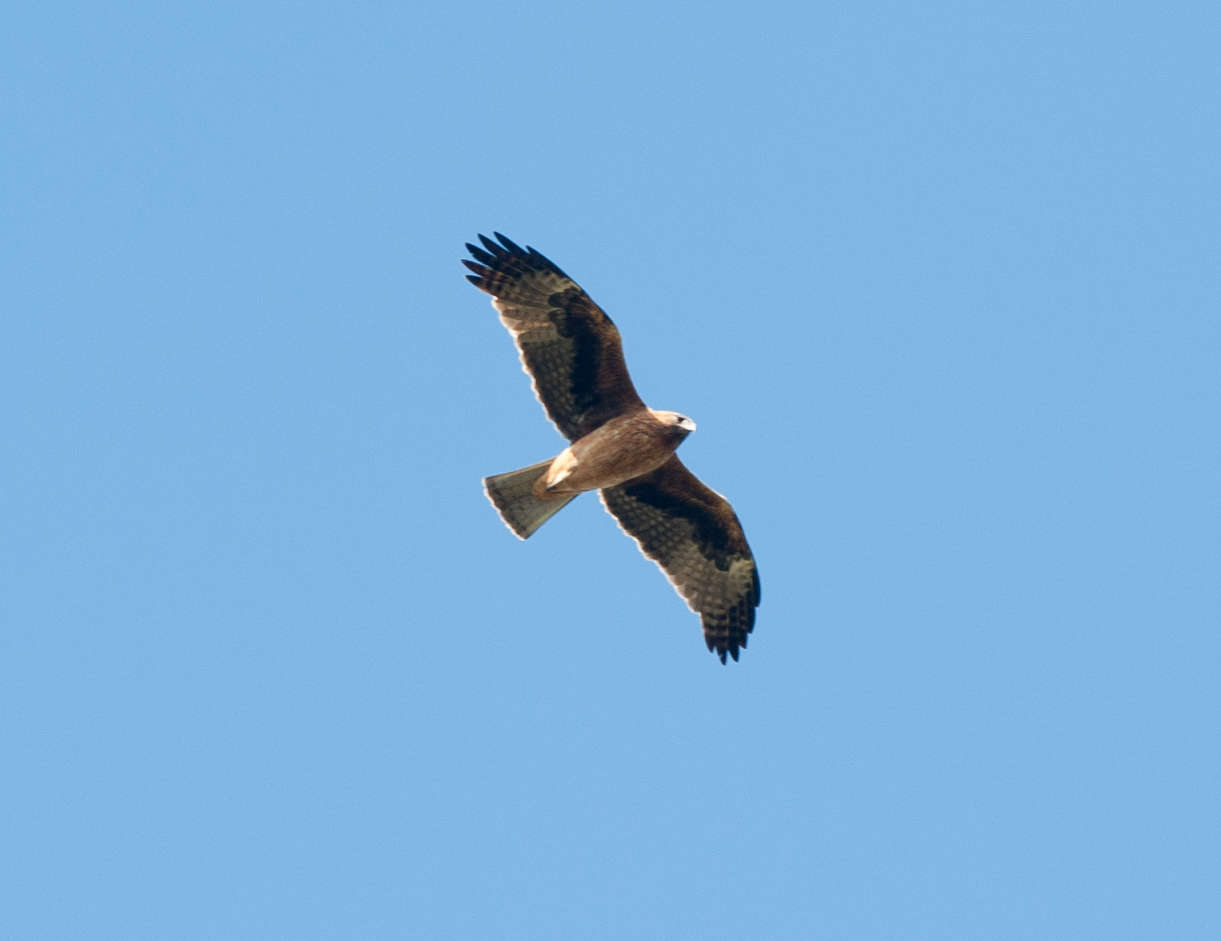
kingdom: Animalia
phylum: Chordata
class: Aves
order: Accipitriformes
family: Accipitridae
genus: Hieraaetus
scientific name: Hieraaetus morphnoides
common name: Little eagle
